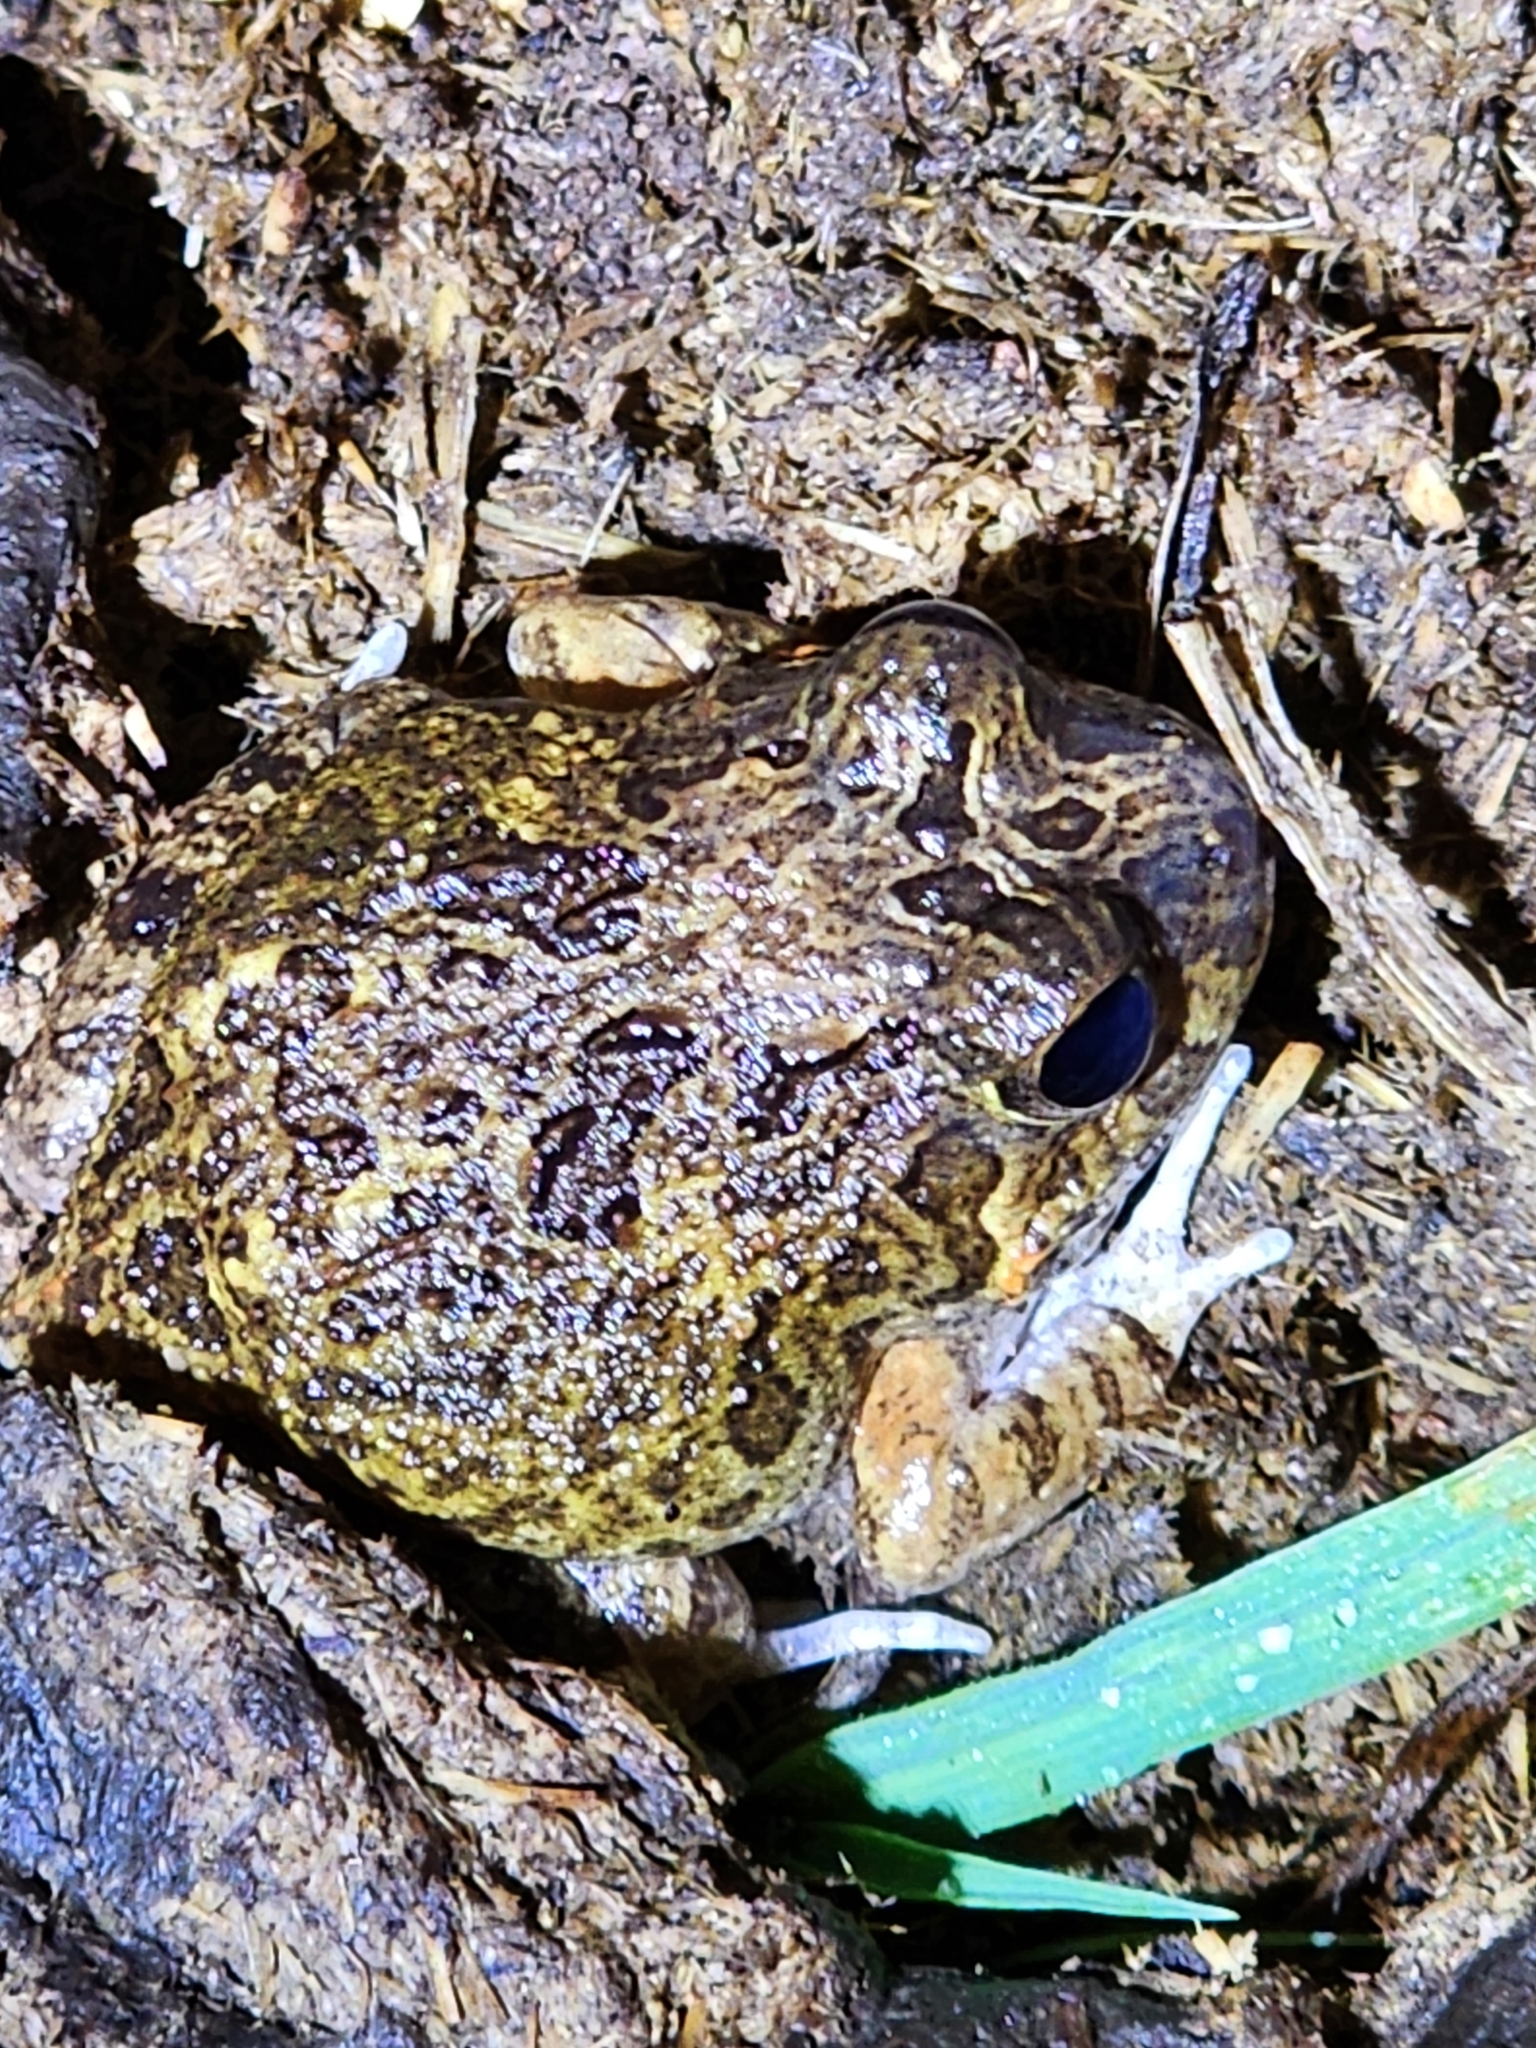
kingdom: Animalia
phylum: Chordata
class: Amphibia
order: Anura
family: Limnodynastidae
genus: Platyplectrum
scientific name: Platyplectrum ornatum
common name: Ornate burrowing frog
